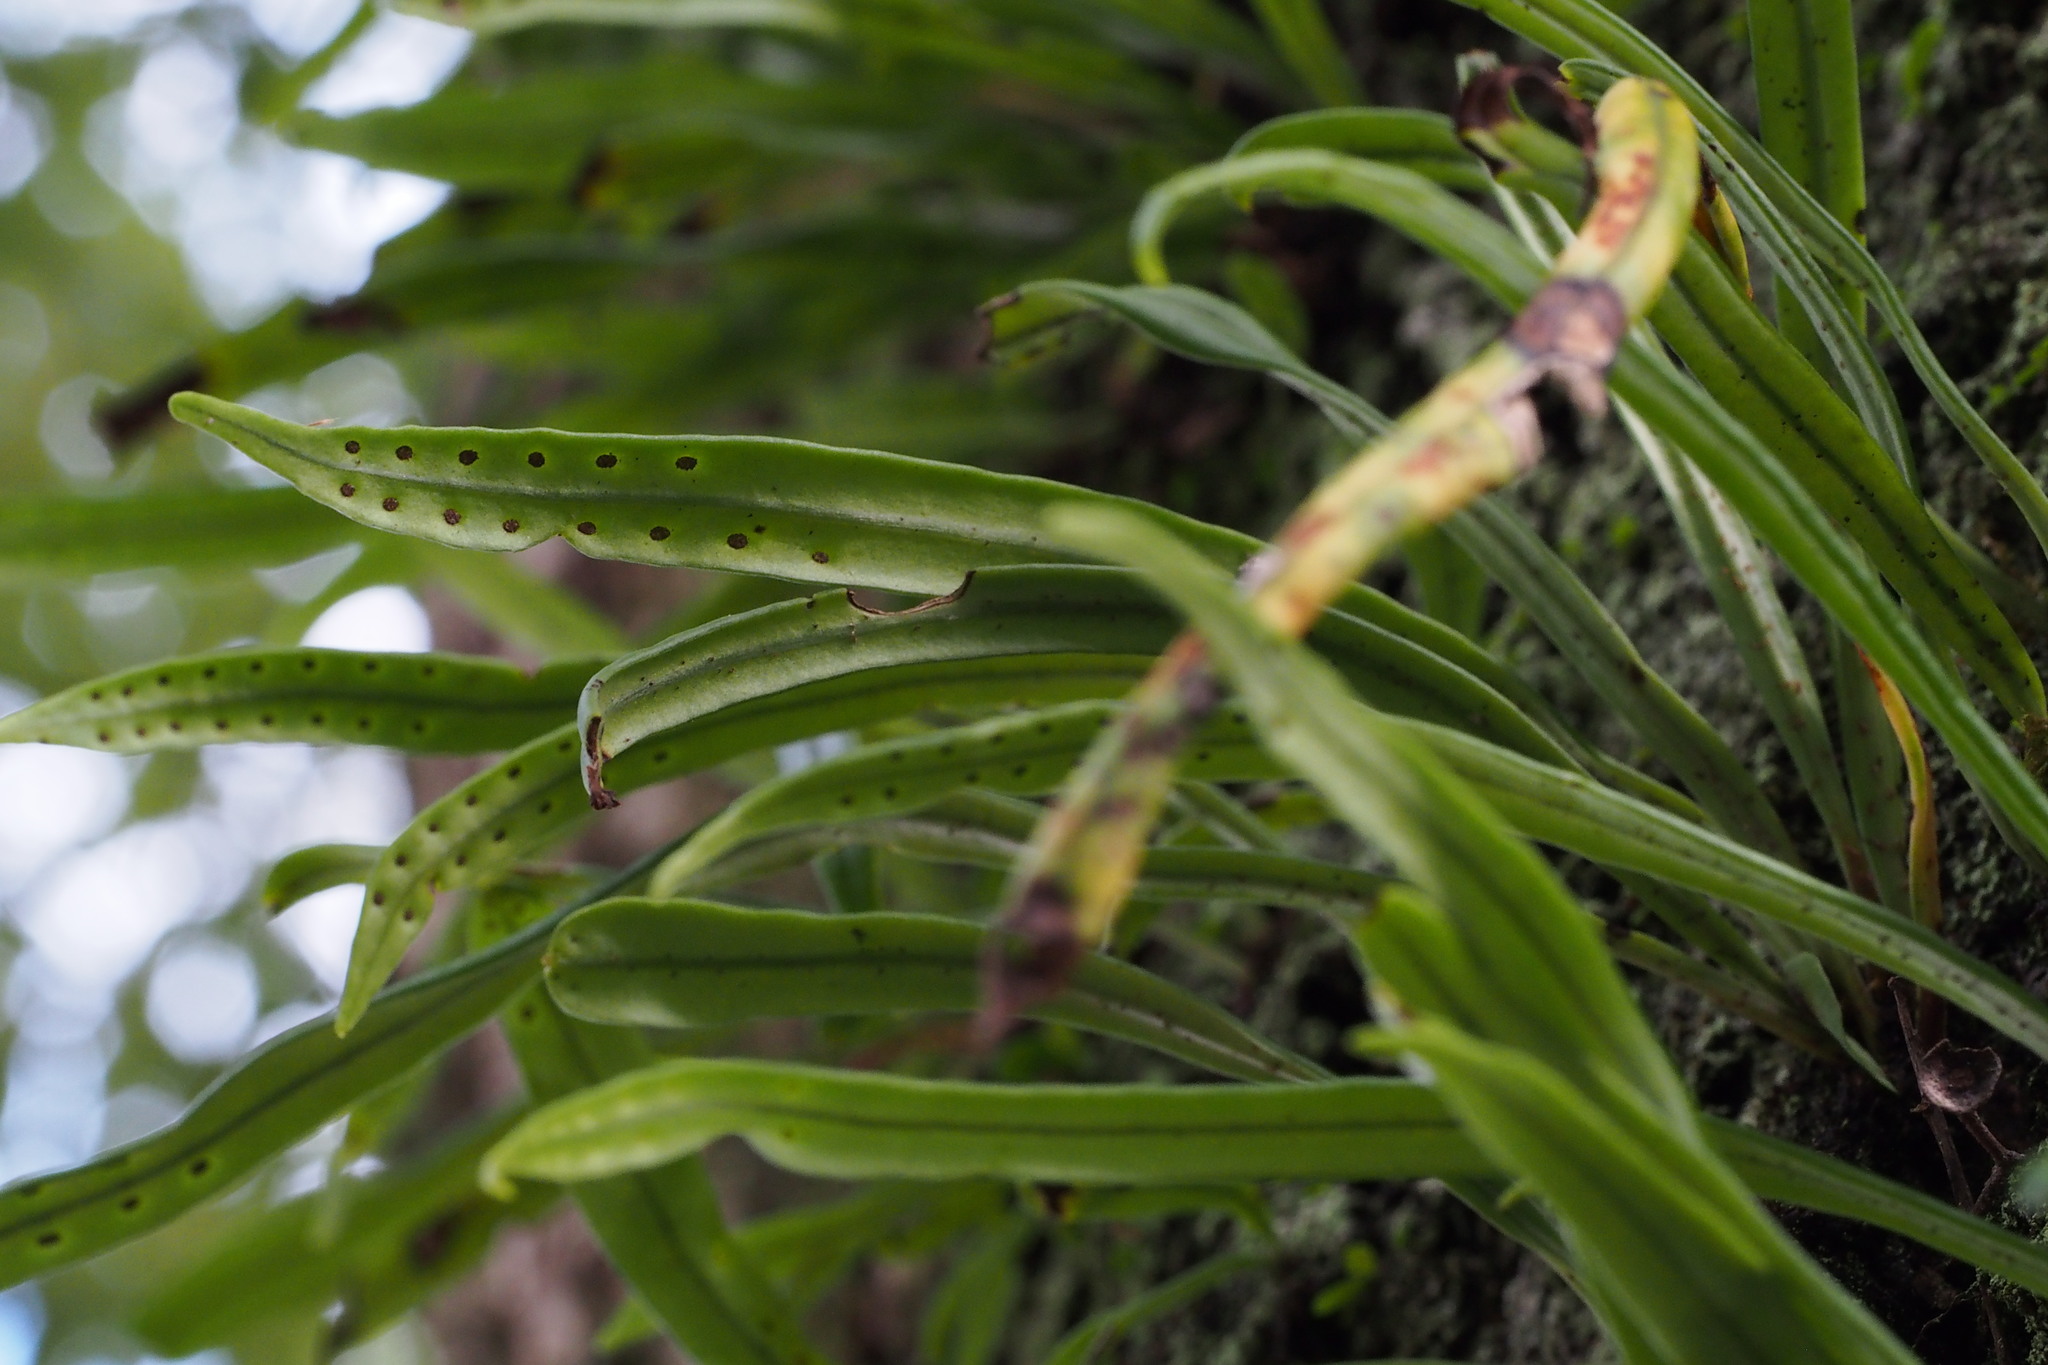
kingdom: Plantae
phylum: Tracheophyta
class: Polypodiopsida
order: Polypodiales
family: Polypodiaceae
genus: Lepisorus
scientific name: Lepisorus thunbergianus
